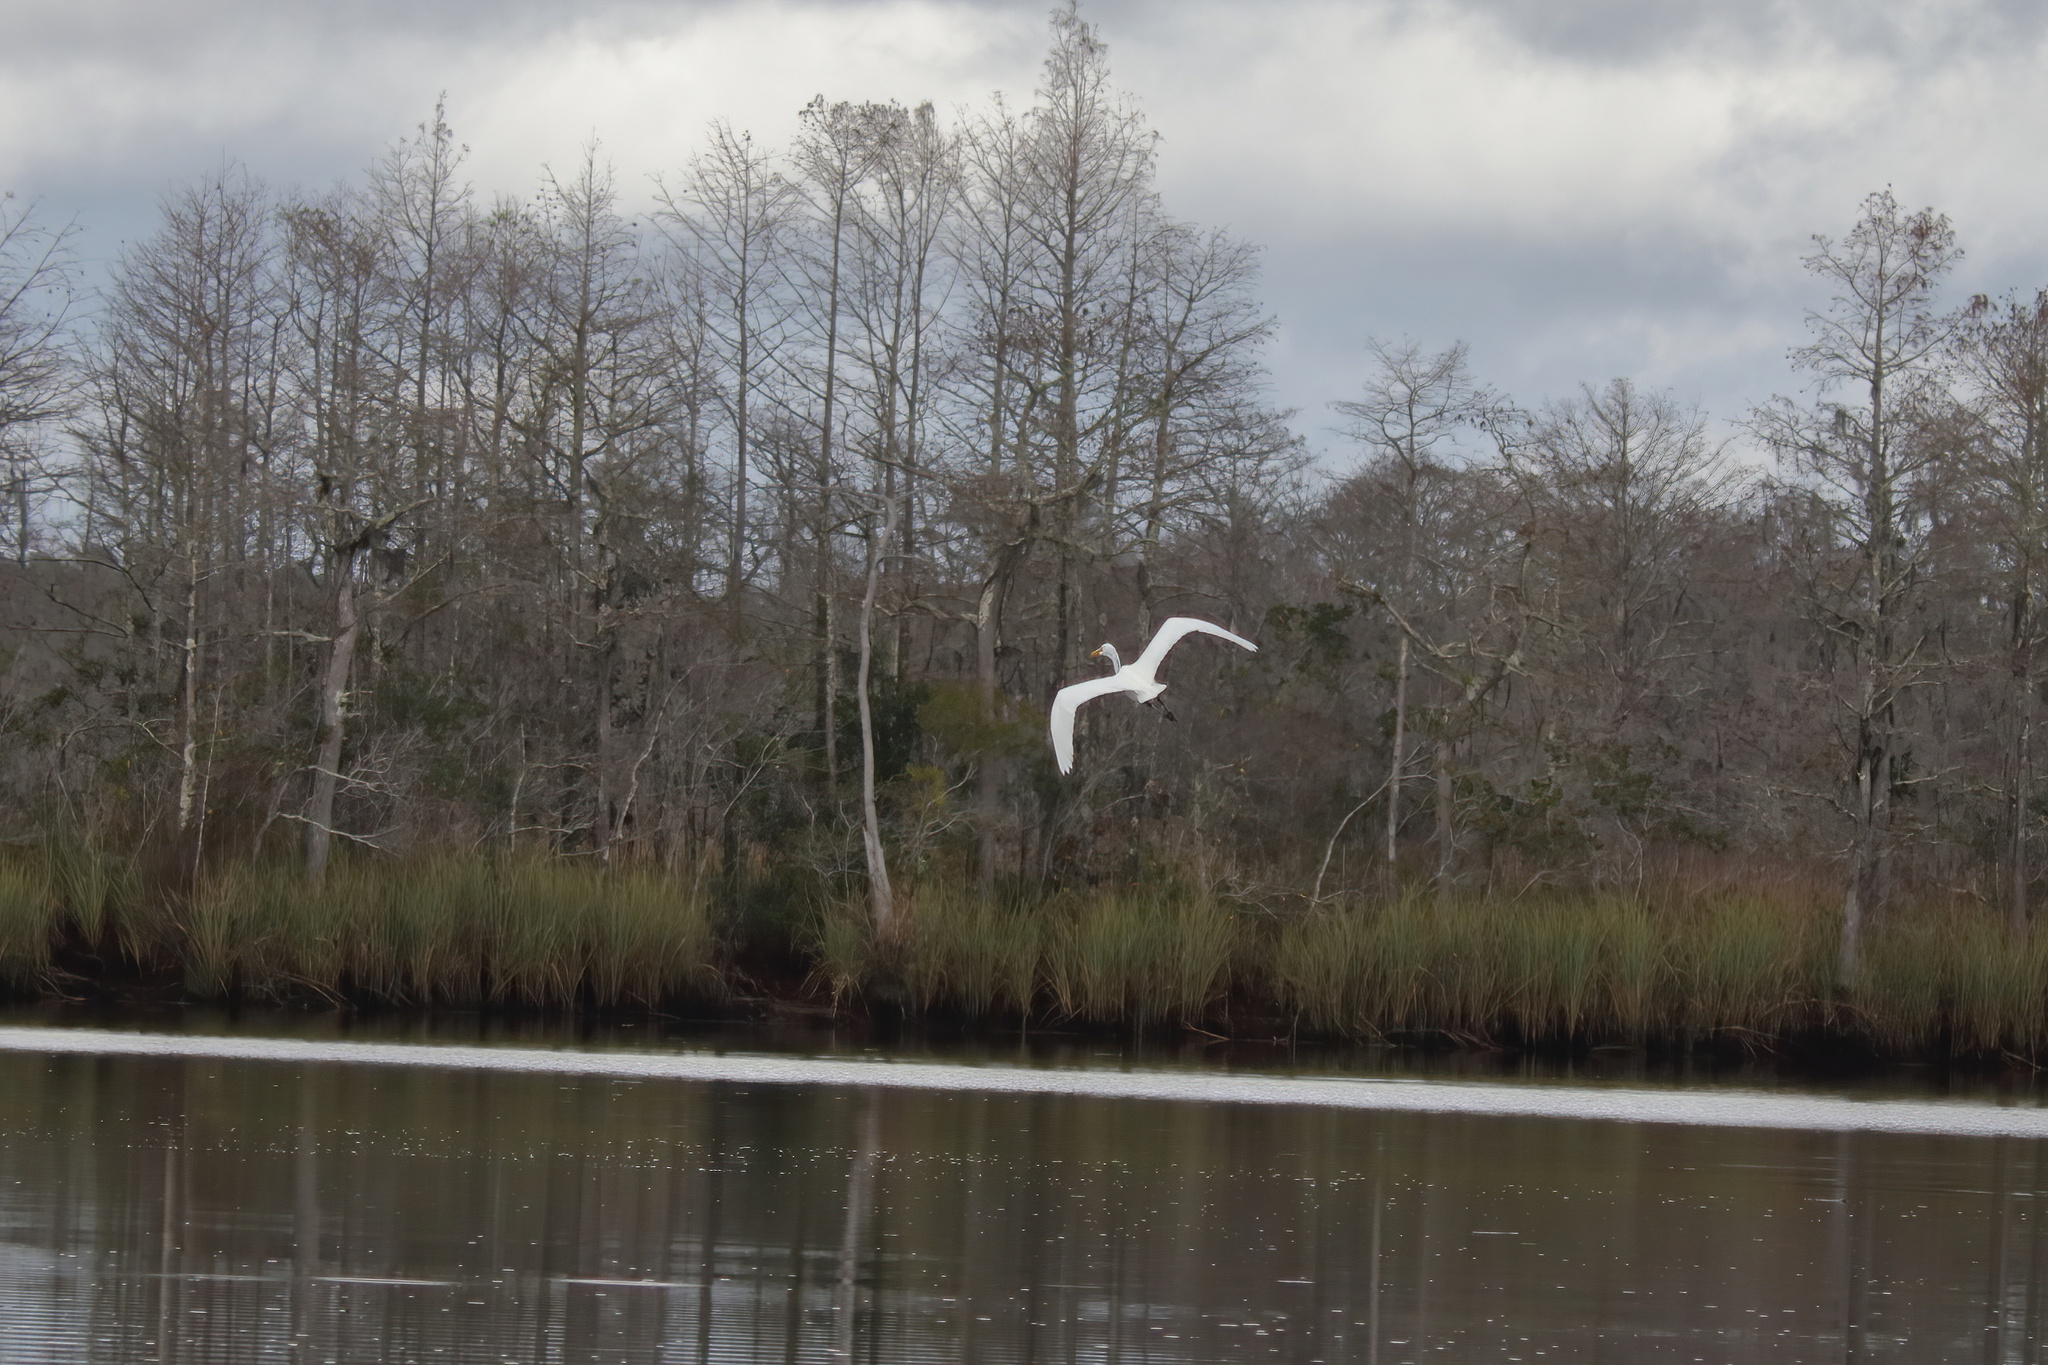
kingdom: Animalia
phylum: Chordata
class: Aves
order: Pelecaniformes
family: Ardeidae
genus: Ardea
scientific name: Ardea alba
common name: Great egret
